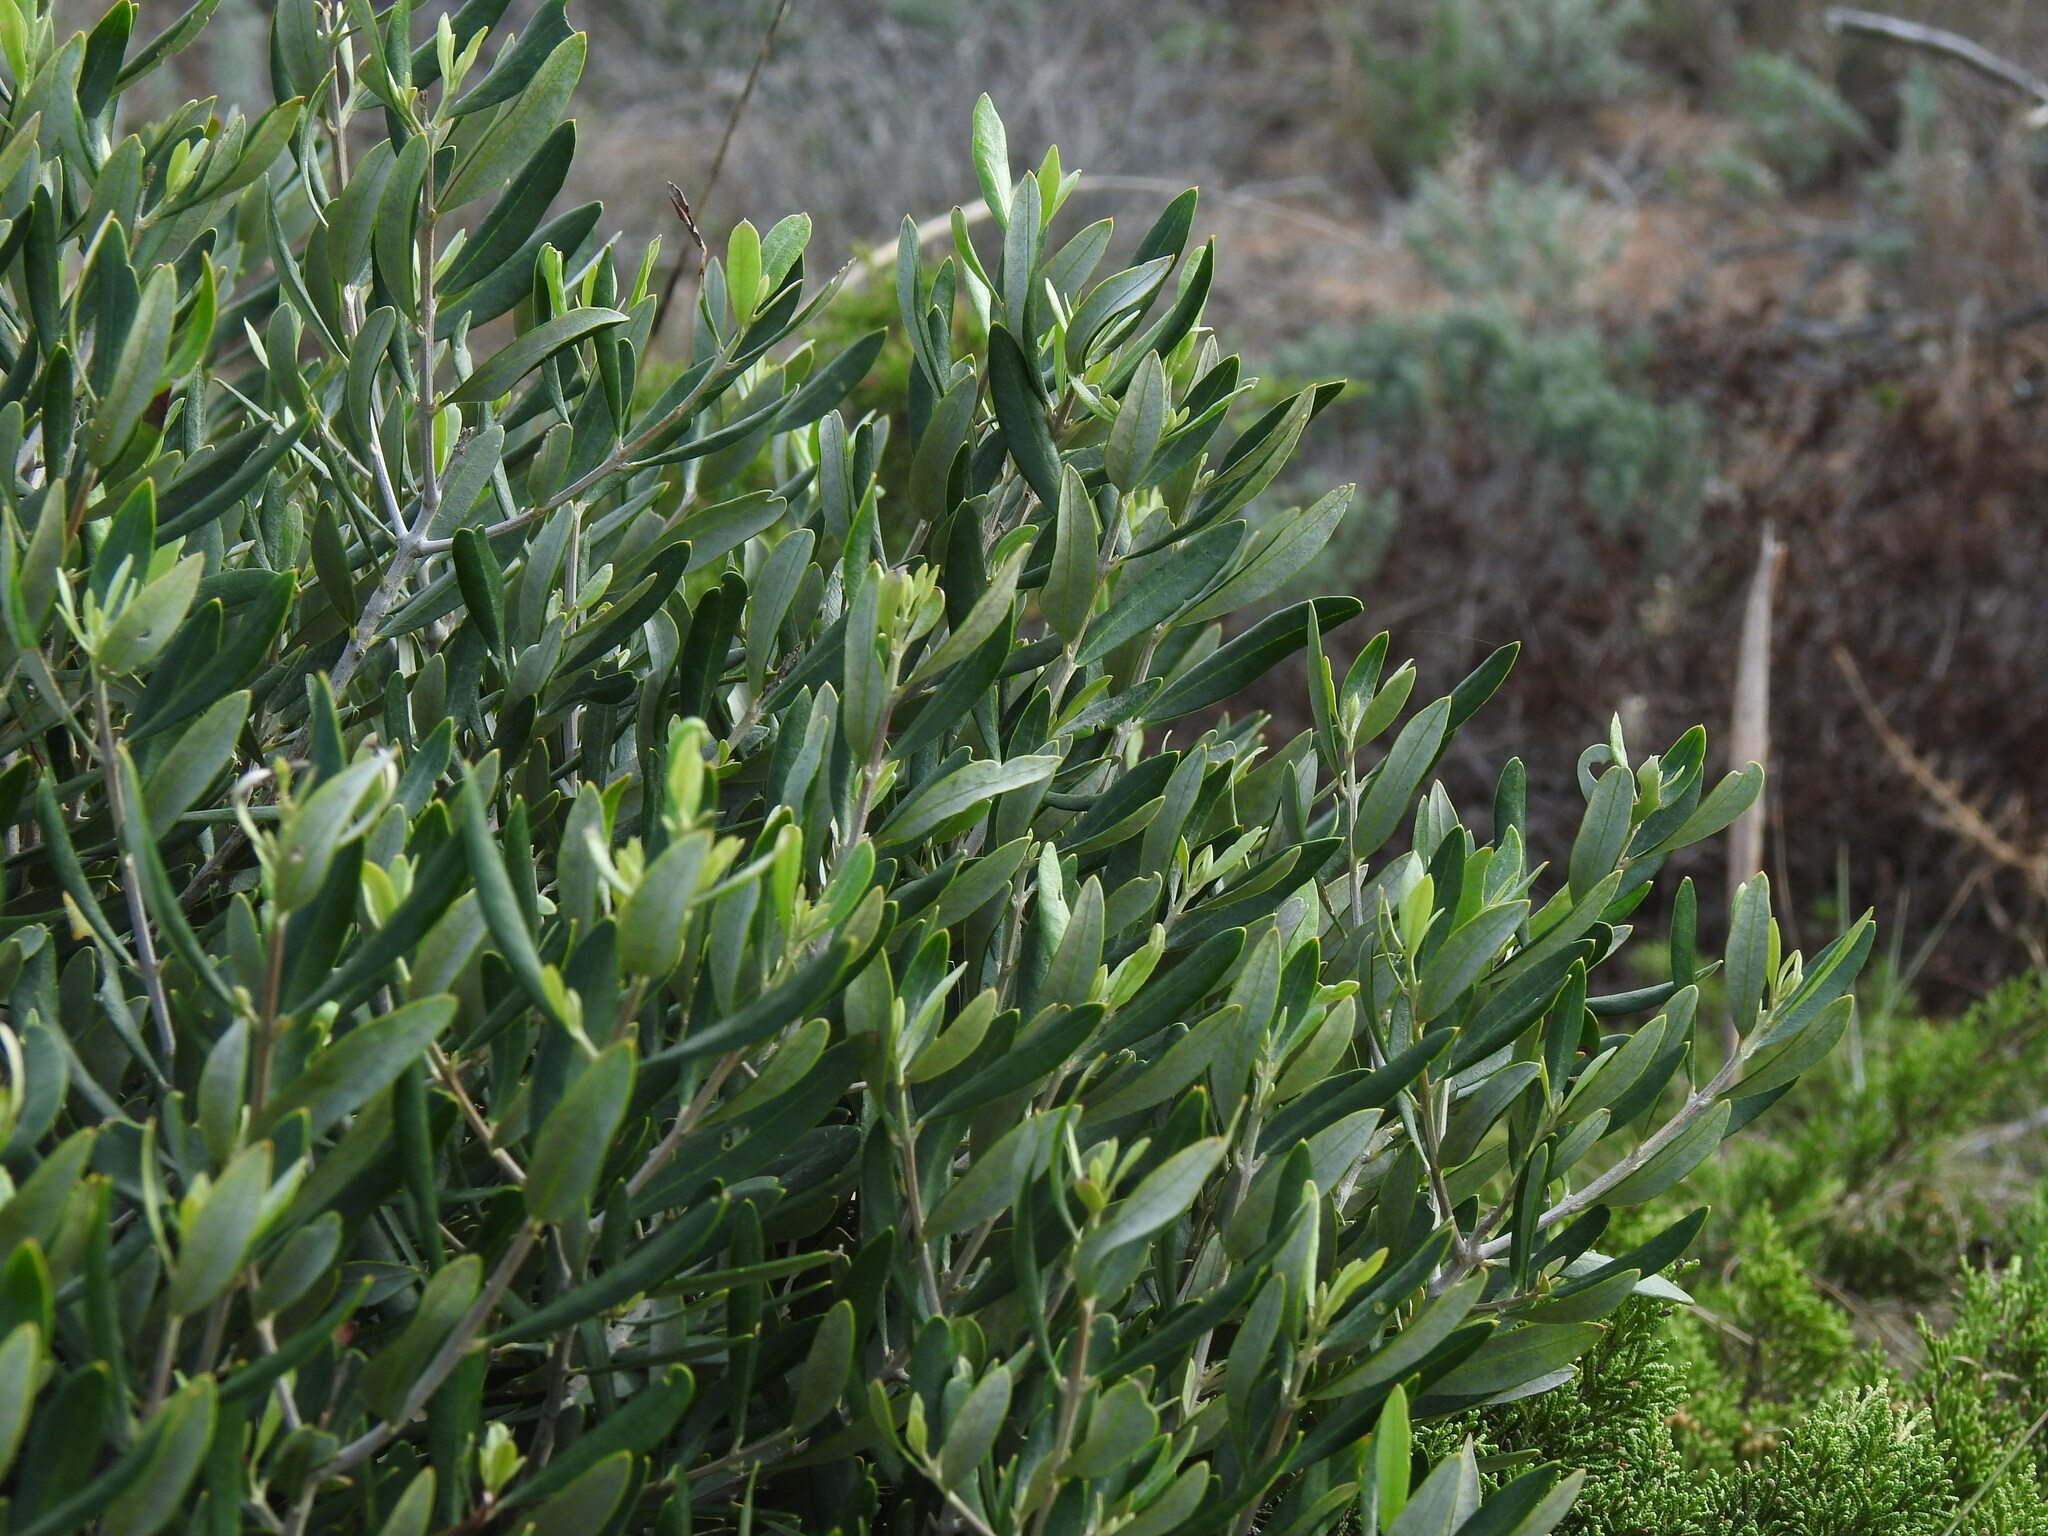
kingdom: Plantae
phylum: Tracheophyta
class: Magnoliopsida
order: Lamiales
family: Oleaceae
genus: Olea
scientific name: Olea europaea
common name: Olive
